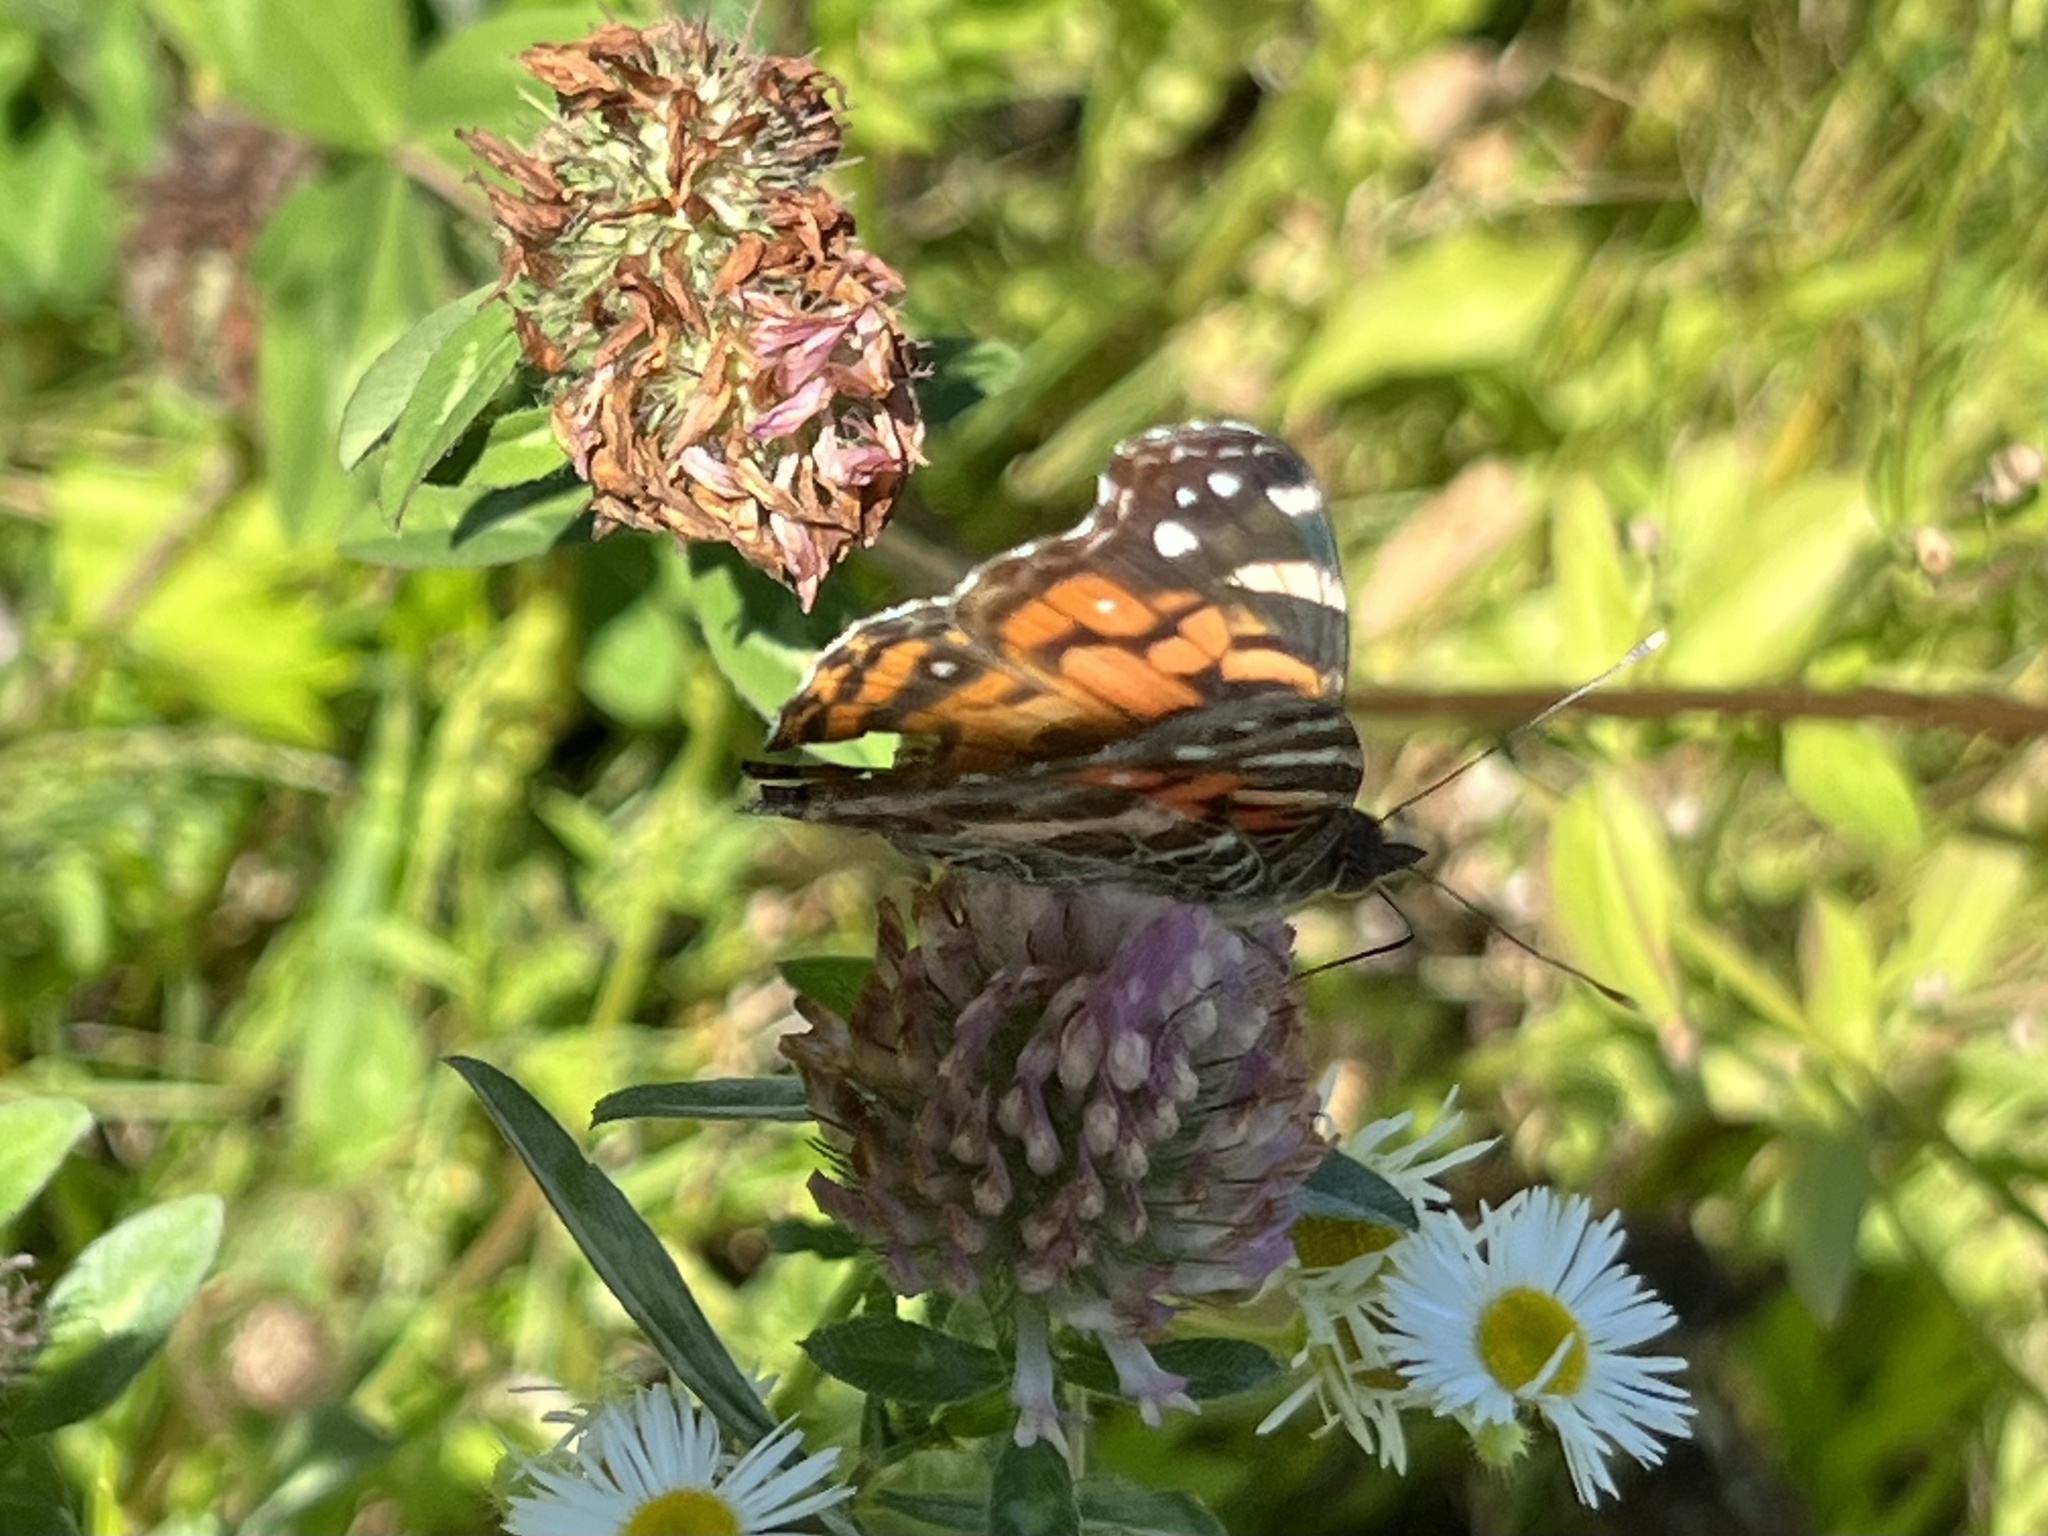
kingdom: Animalia
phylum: Arthropoda
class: Insecta
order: Lepidoptera
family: Nymphalidae
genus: Vanessa
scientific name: Vanessa virginiensis
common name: American lady
